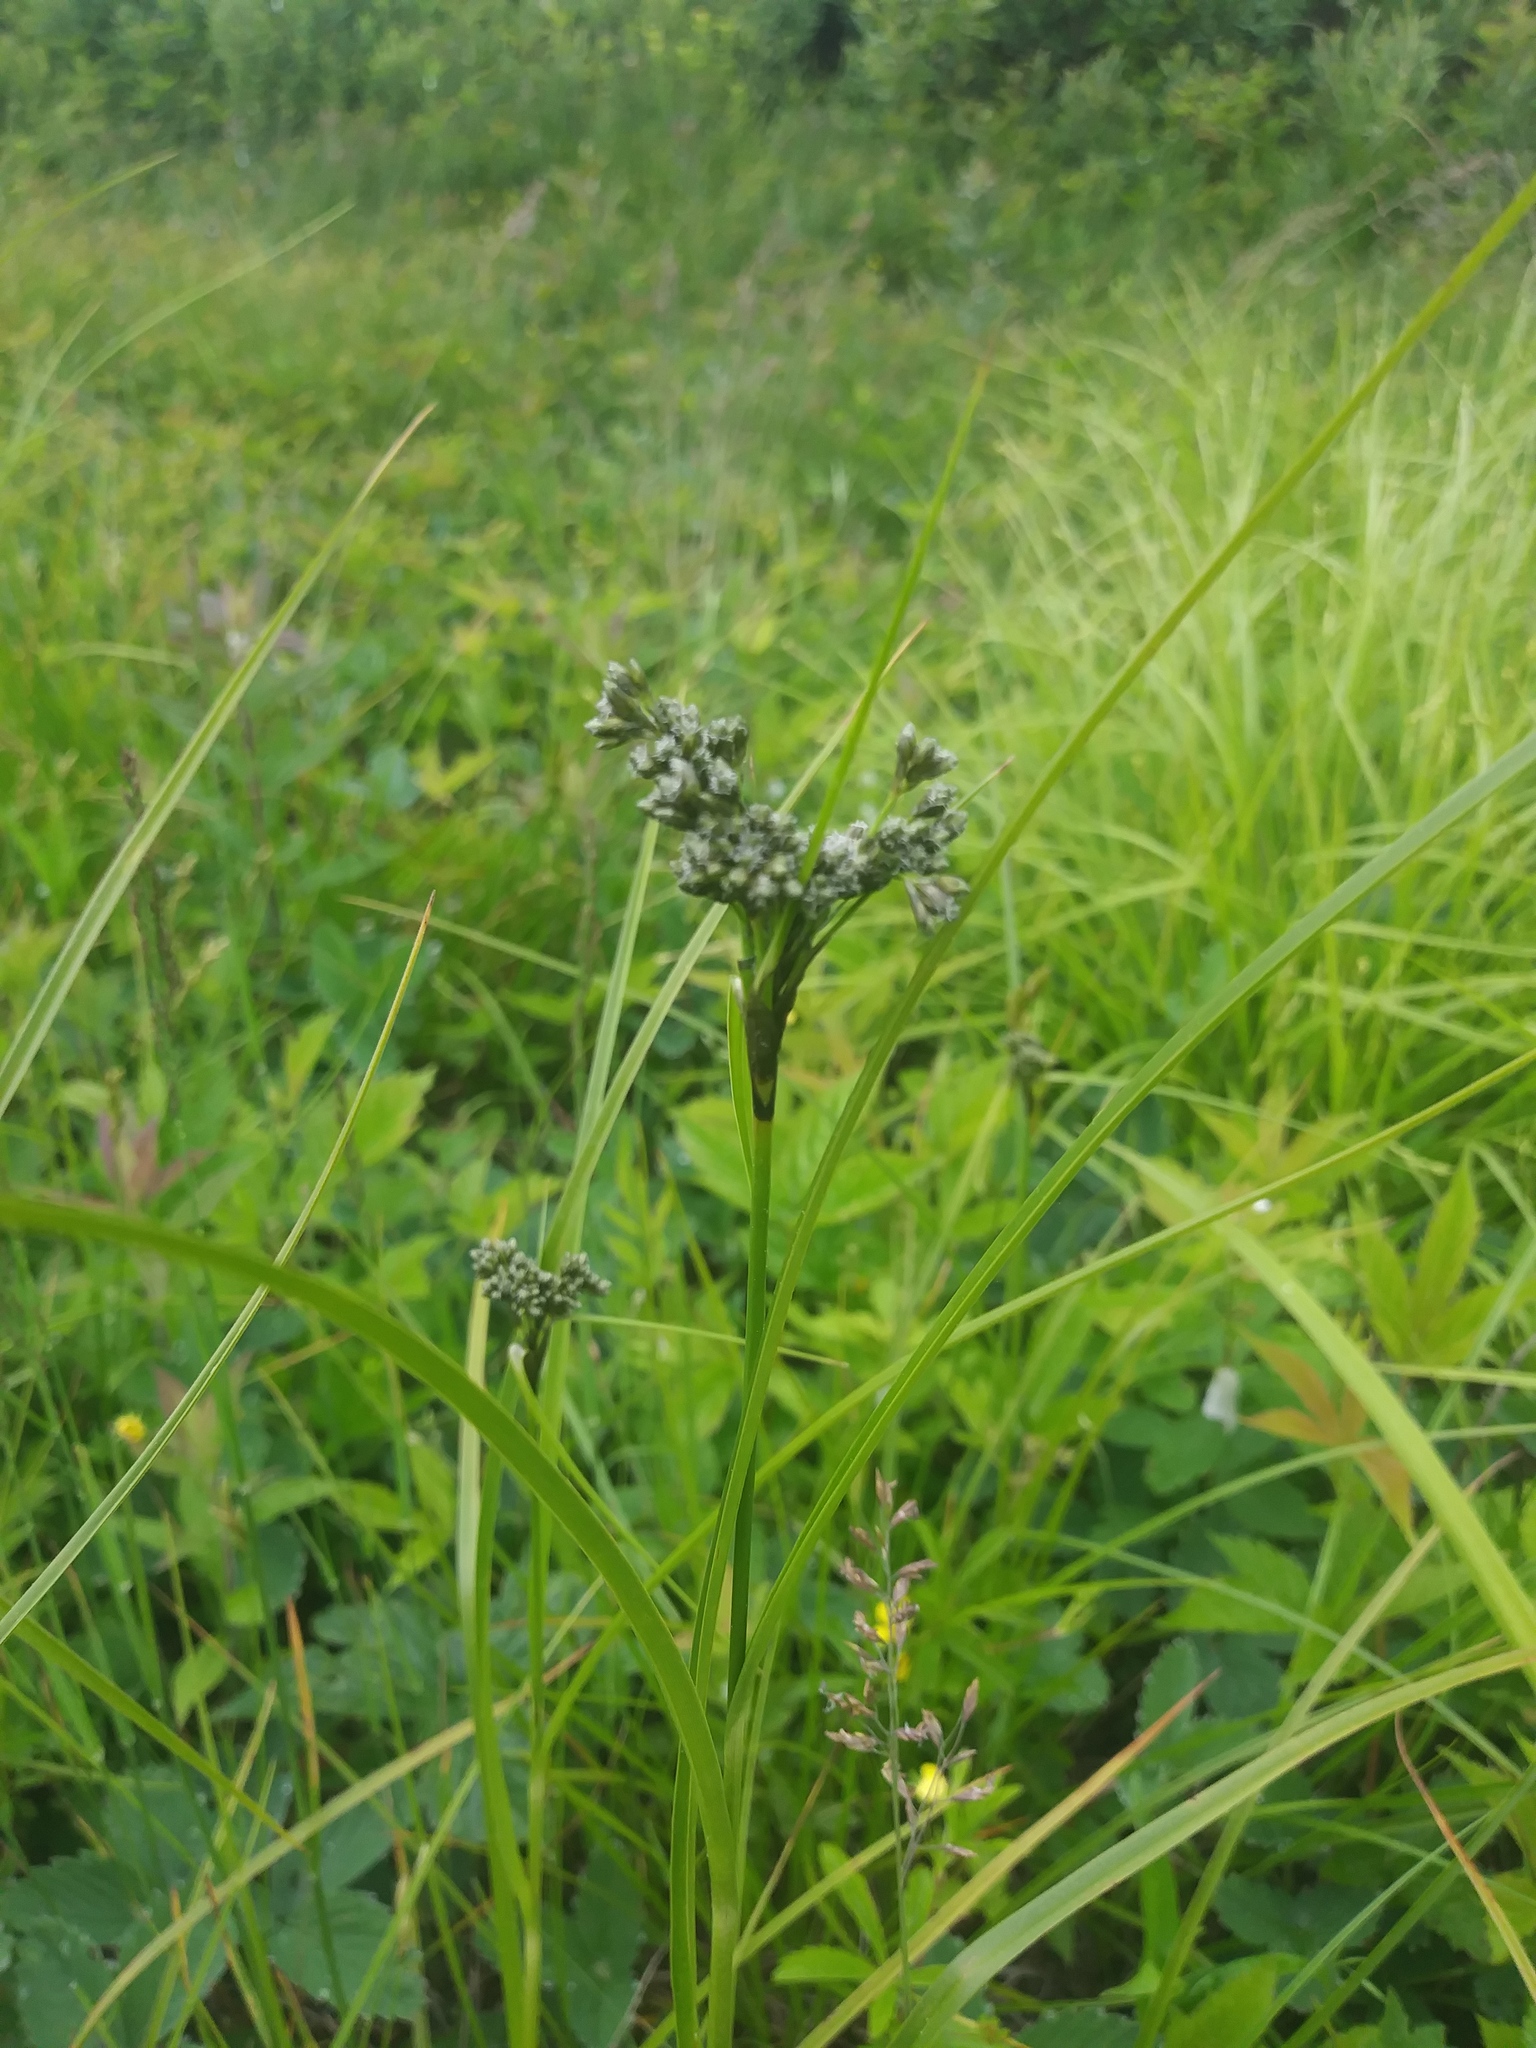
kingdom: Plantae
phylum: Tracheophyta
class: Liliopsida
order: Poales
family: Cyperaceae
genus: Scirpus
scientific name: Scirpus atrocinctus
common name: Black-girdled bulrush
